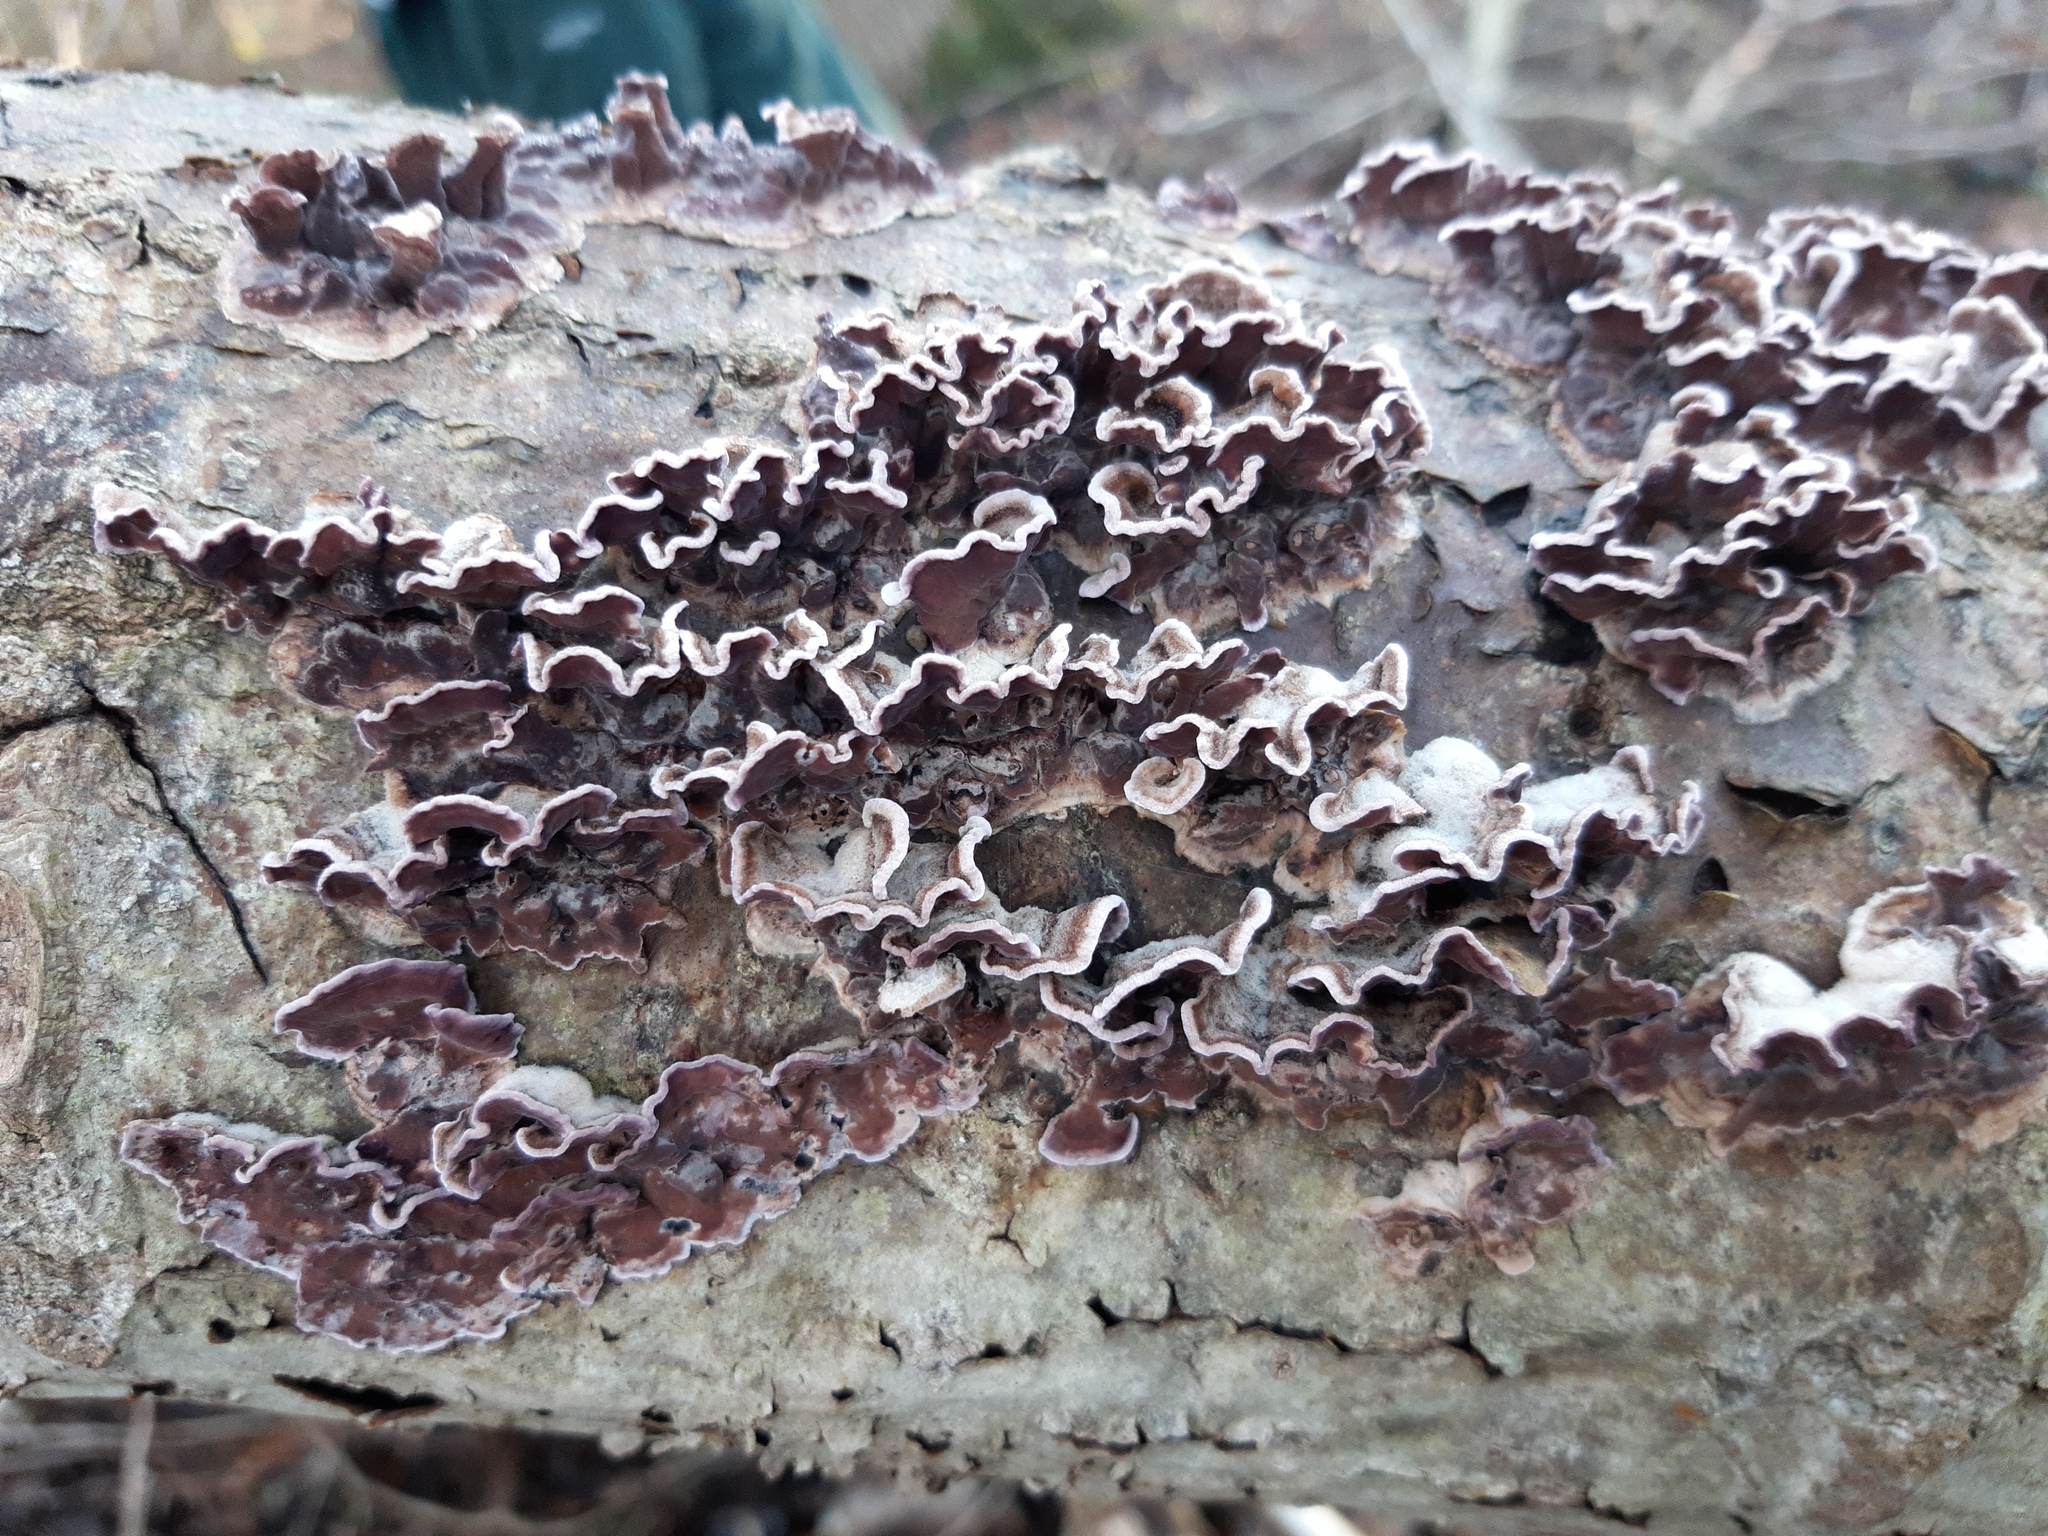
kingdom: Fungi
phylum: Basidiomycota
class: Agaricomycetes
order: Agaricales
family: Cyphellaceae
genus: Chondrostereum
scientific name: Chondrostereum purpureum
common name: Silver leaf disease
